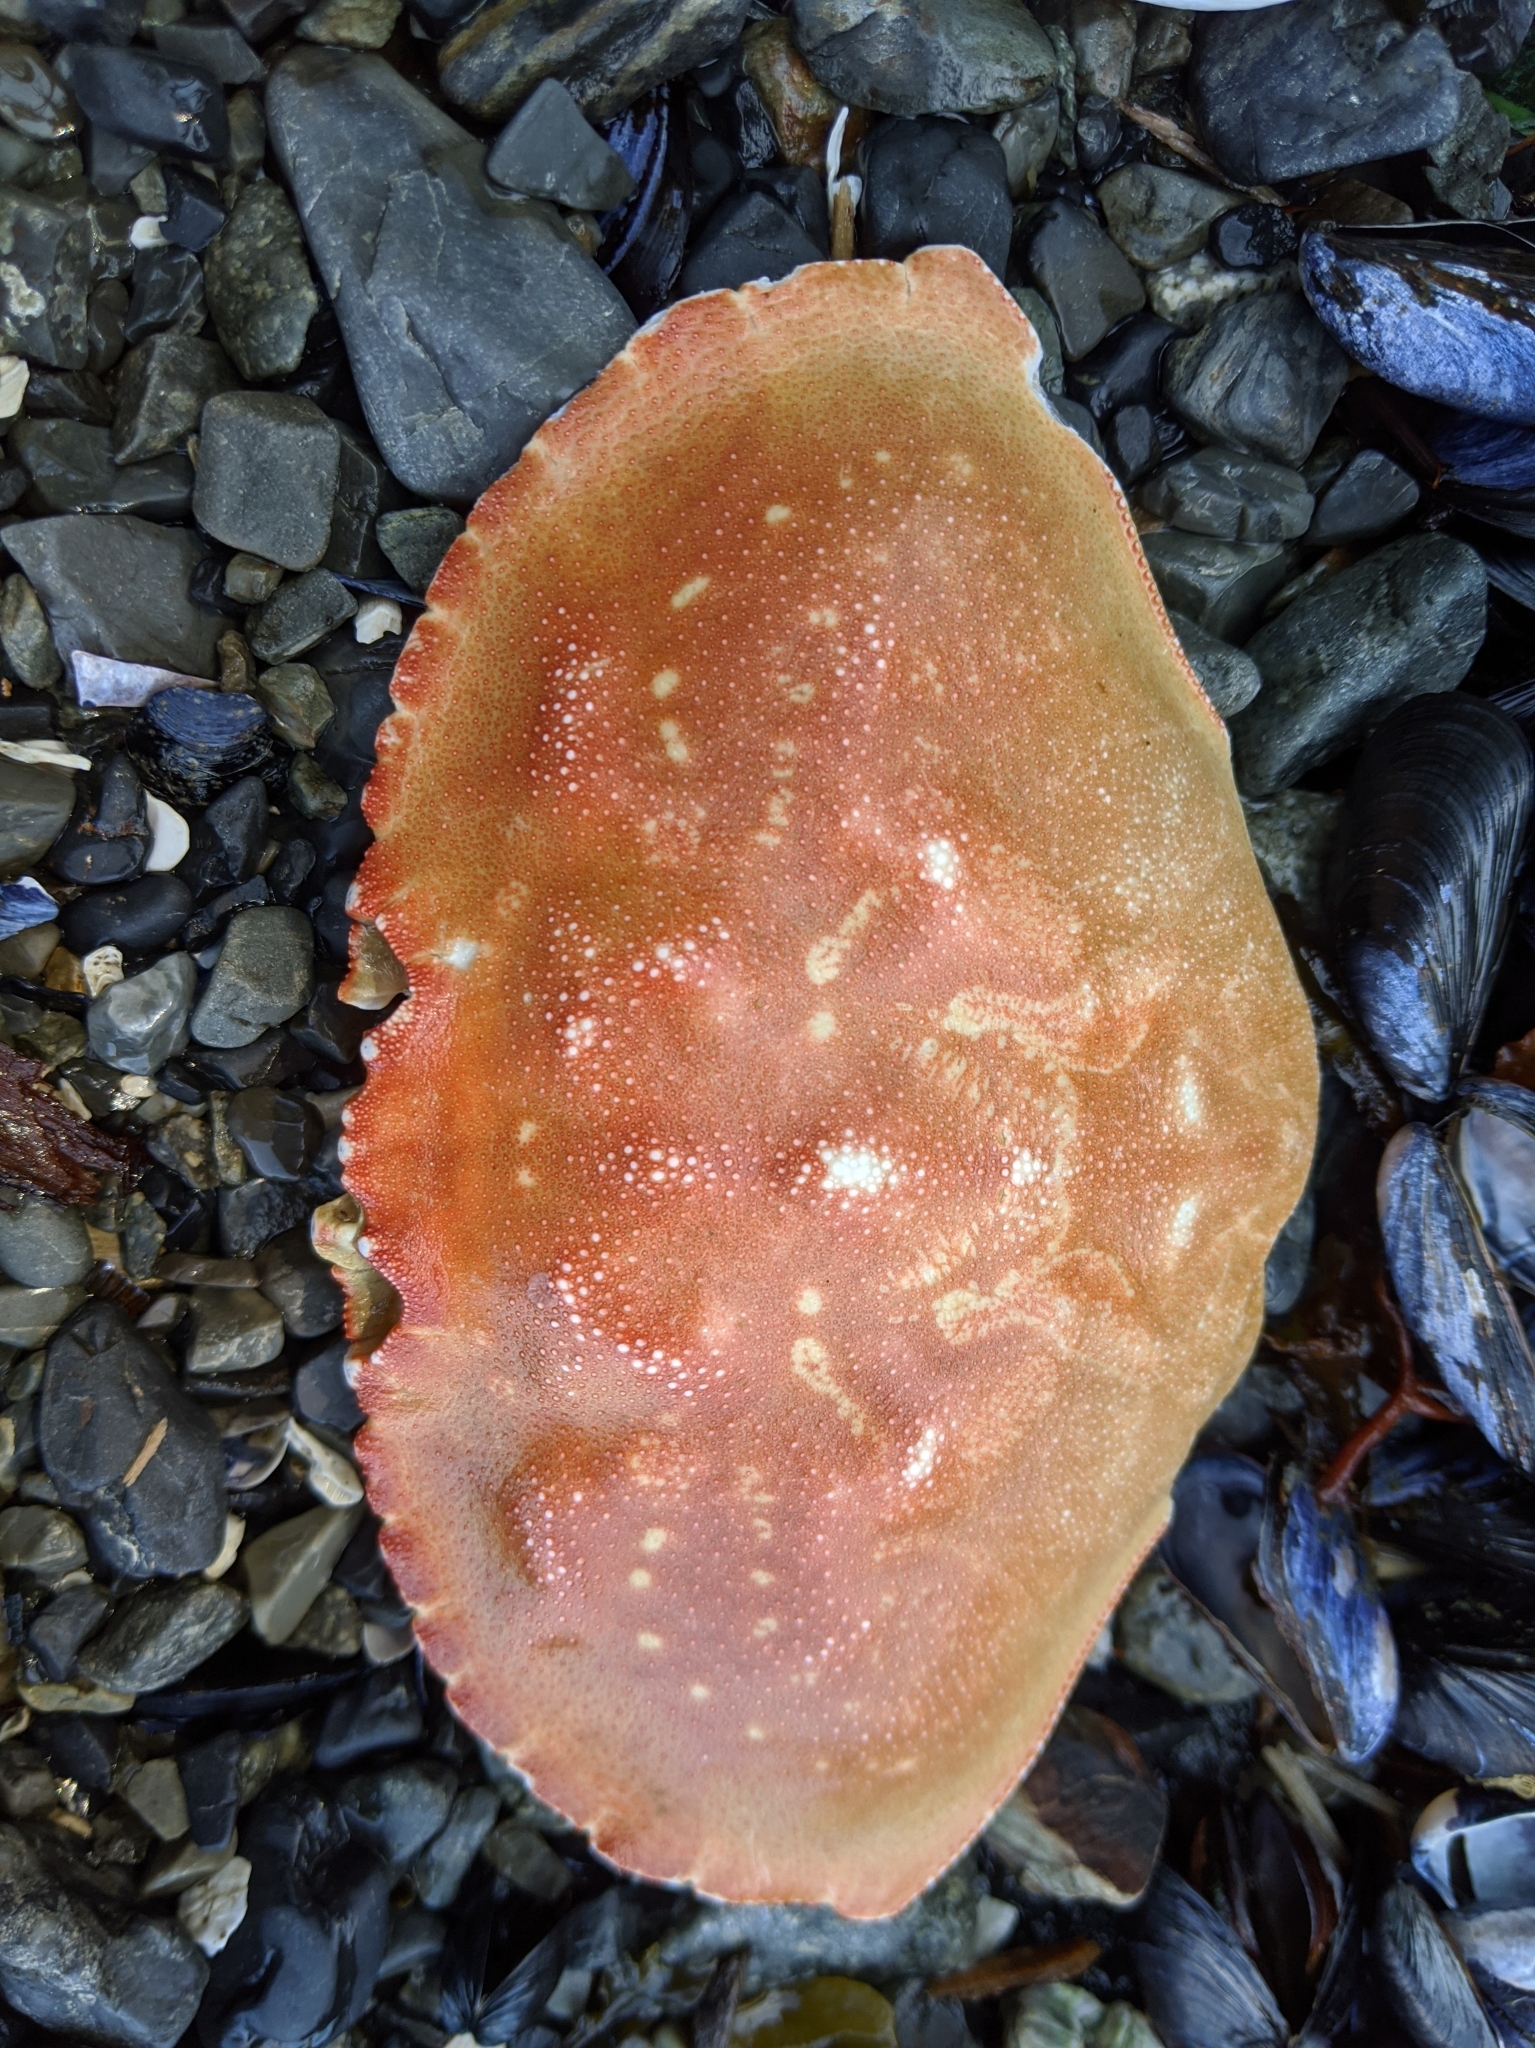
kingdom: Animalia
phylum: Arthropoda
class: Malacostraca
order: Decapoda
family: Cancridae
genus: Metacarcinus
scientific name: Metacarcinus magister
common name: Californian crab
